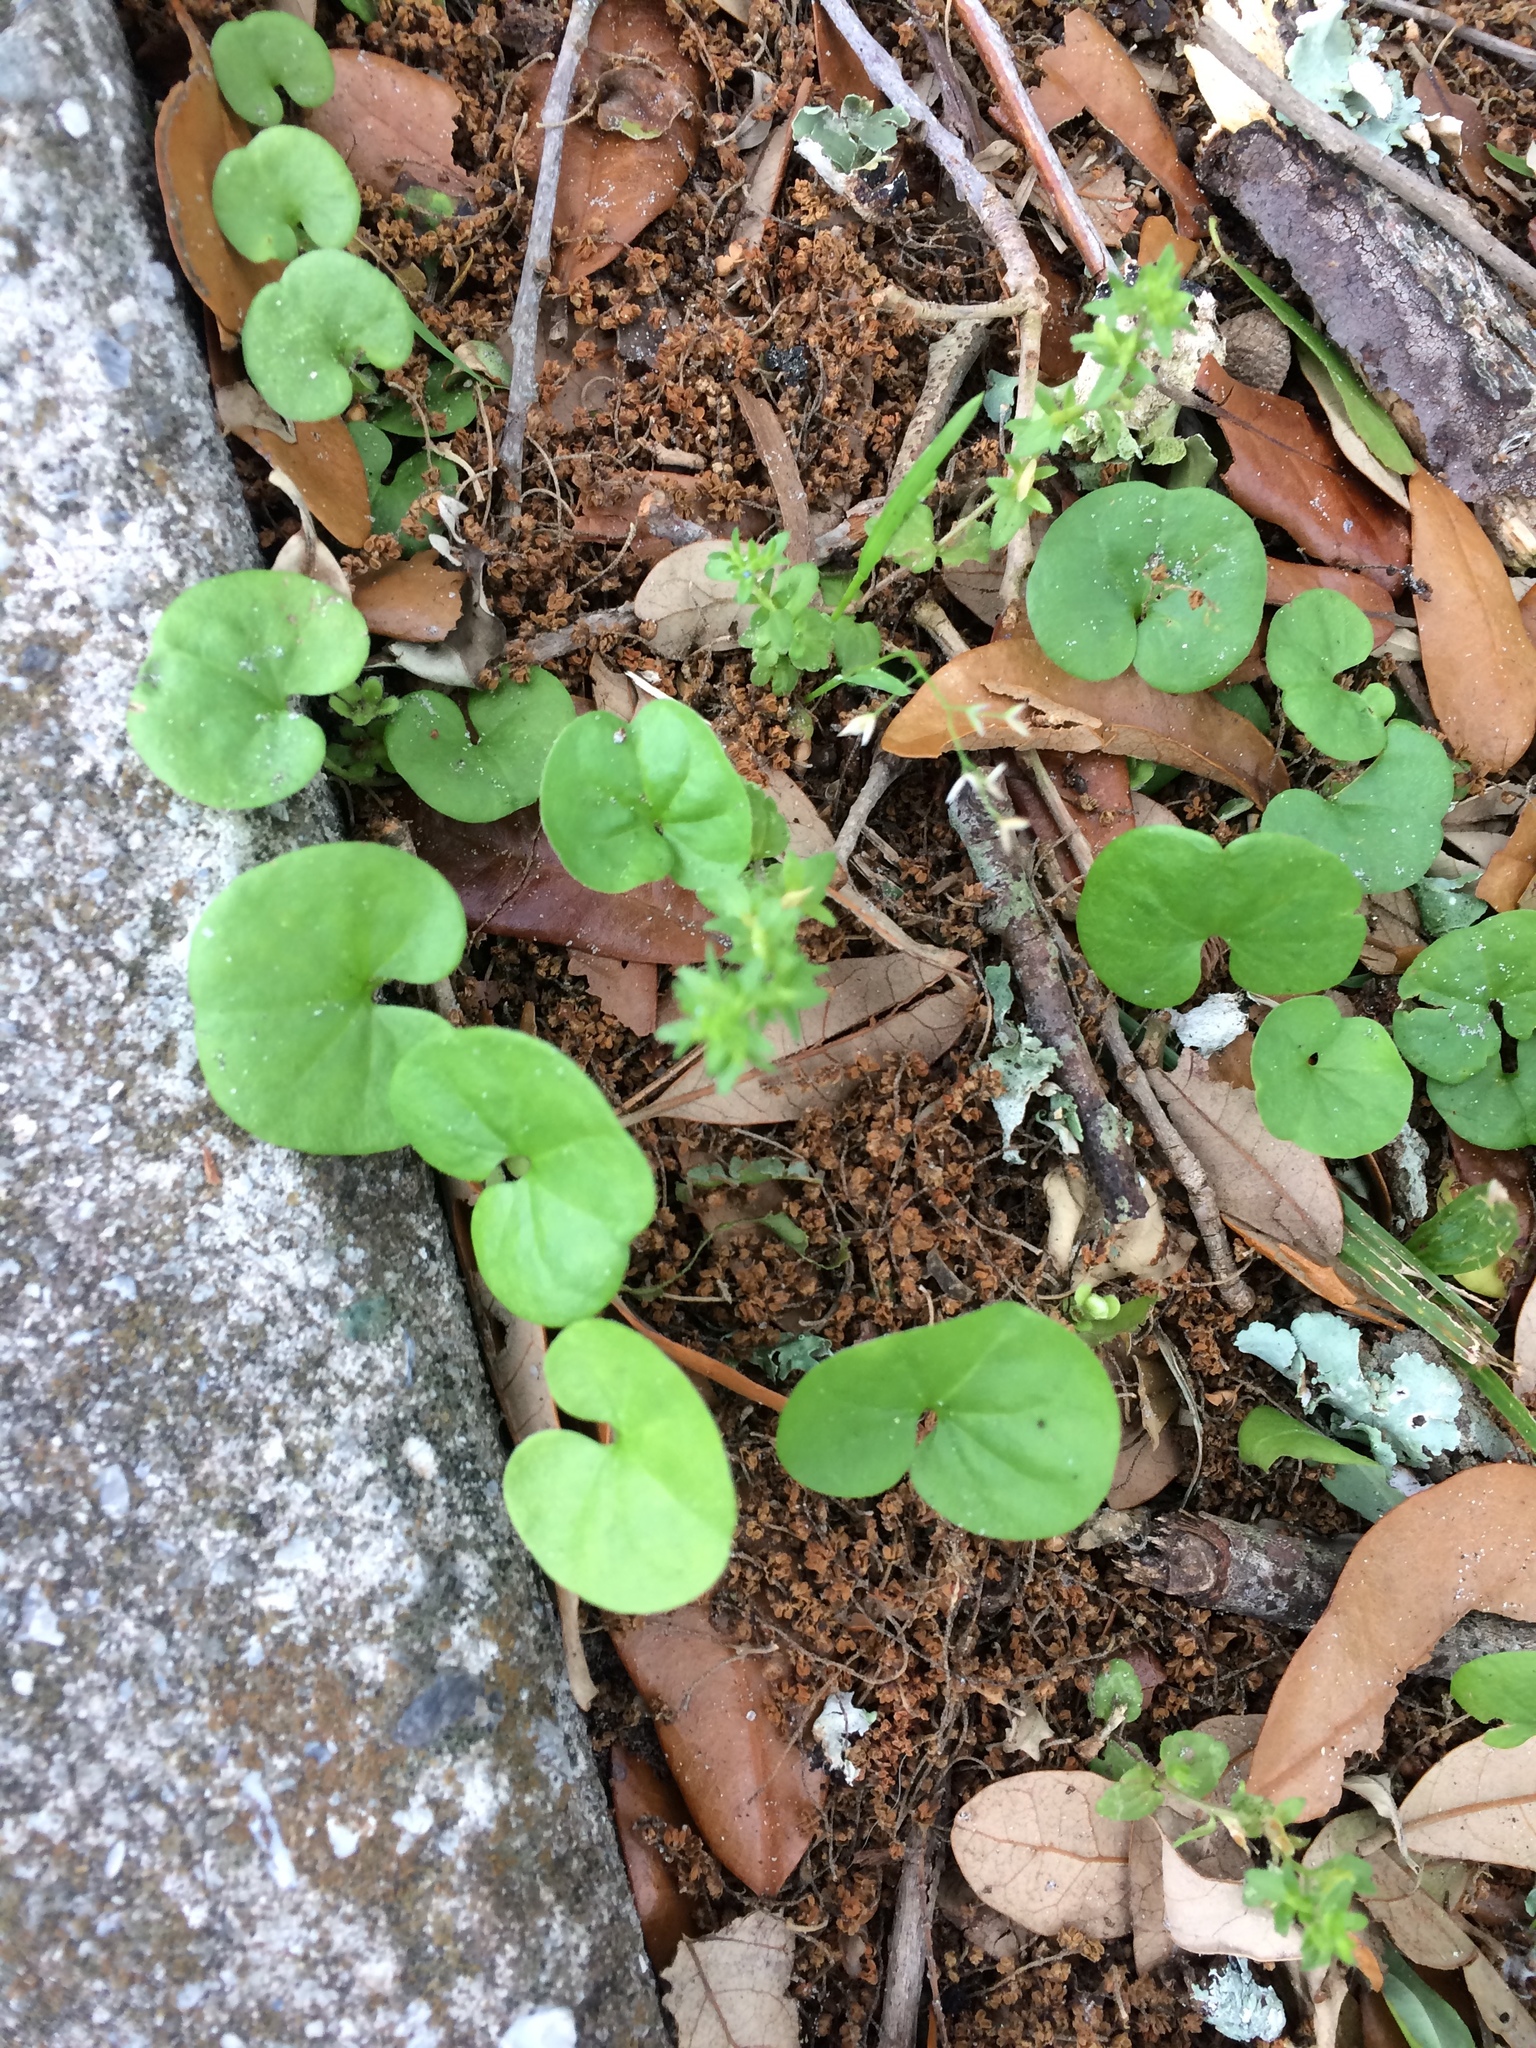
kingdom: Plantae
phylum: Tracheophyta
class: Magnoliopsida
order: Solanales
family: Convolvulaceae
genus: Dichondra
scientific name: Dichondra carolinensis
